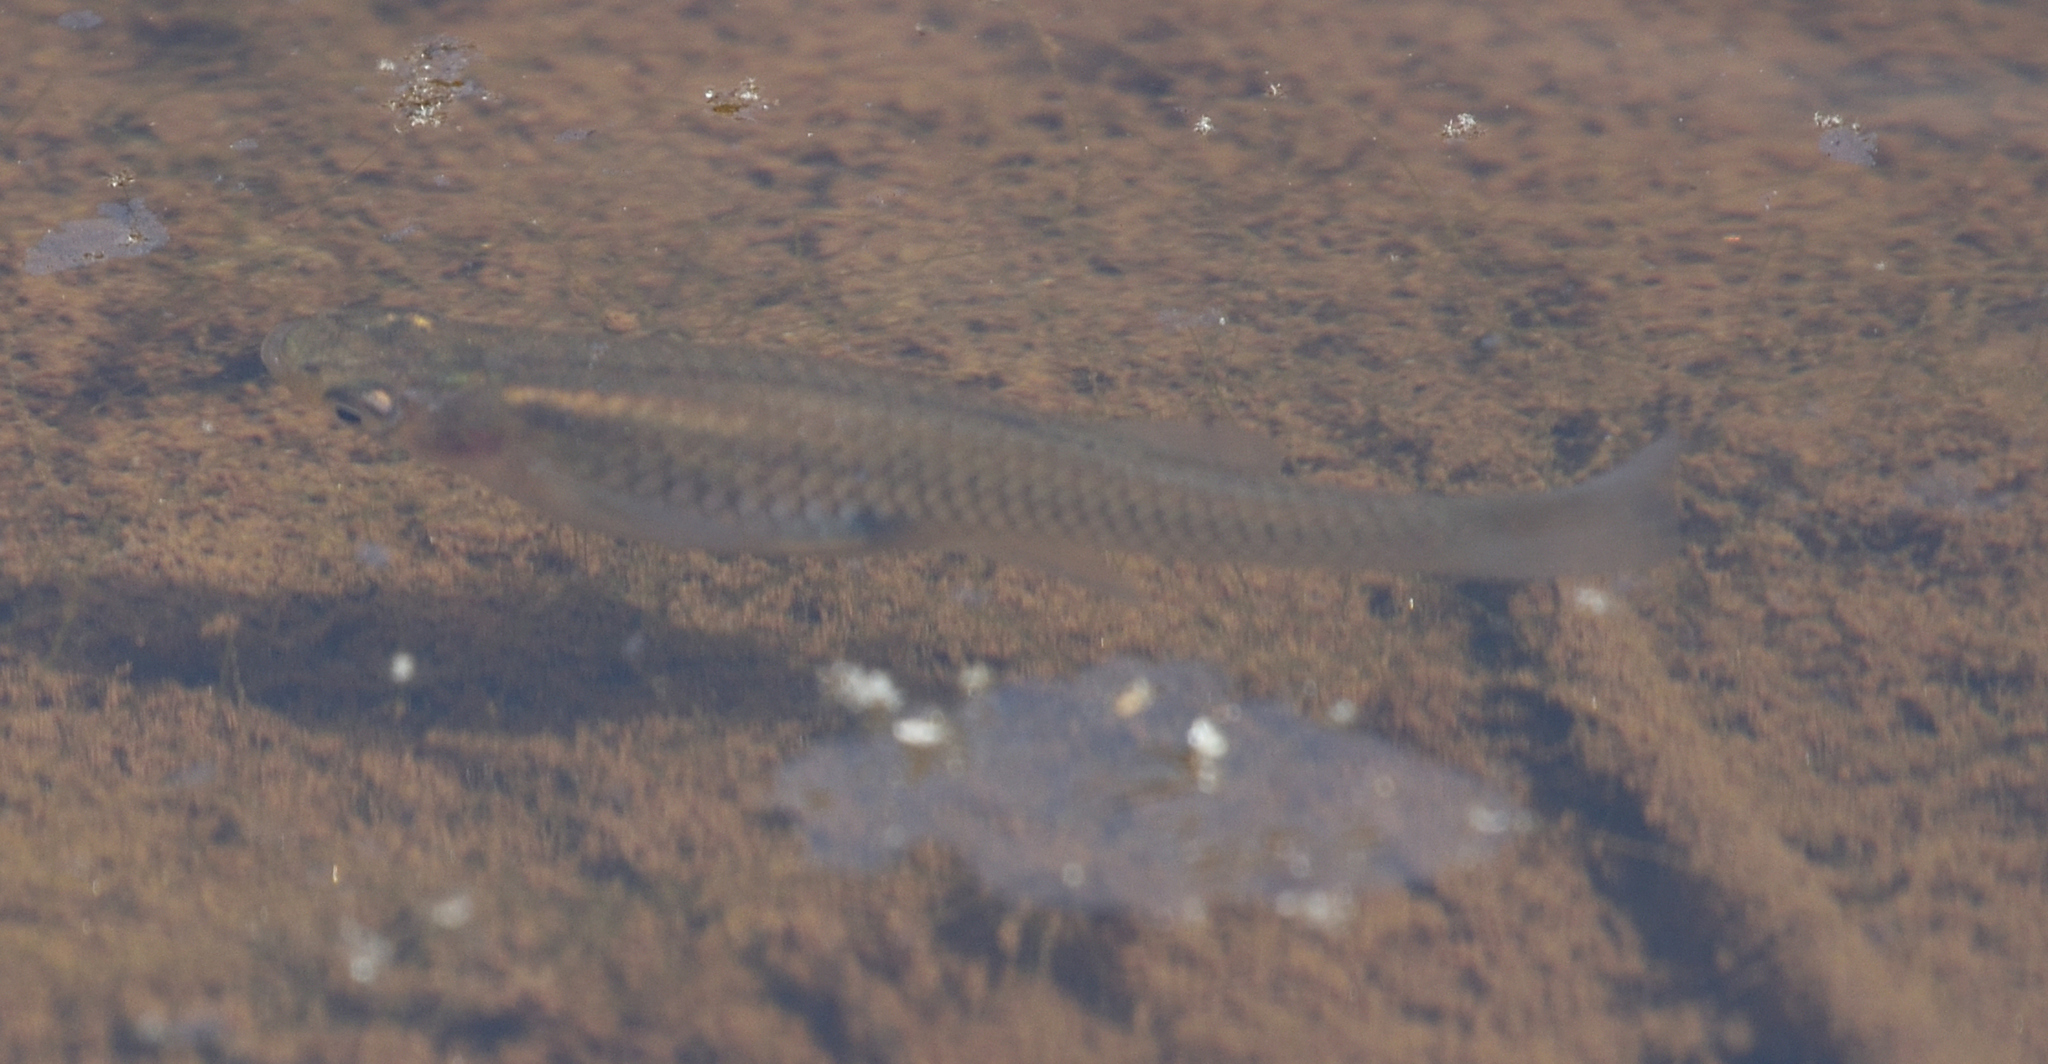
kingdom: Animalia
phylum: Chordata
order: Cyprinodontiformes
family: Poeciliidae
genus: Gambusia
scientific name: Gambusia holbrooki
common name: Eastern mosquitofish
